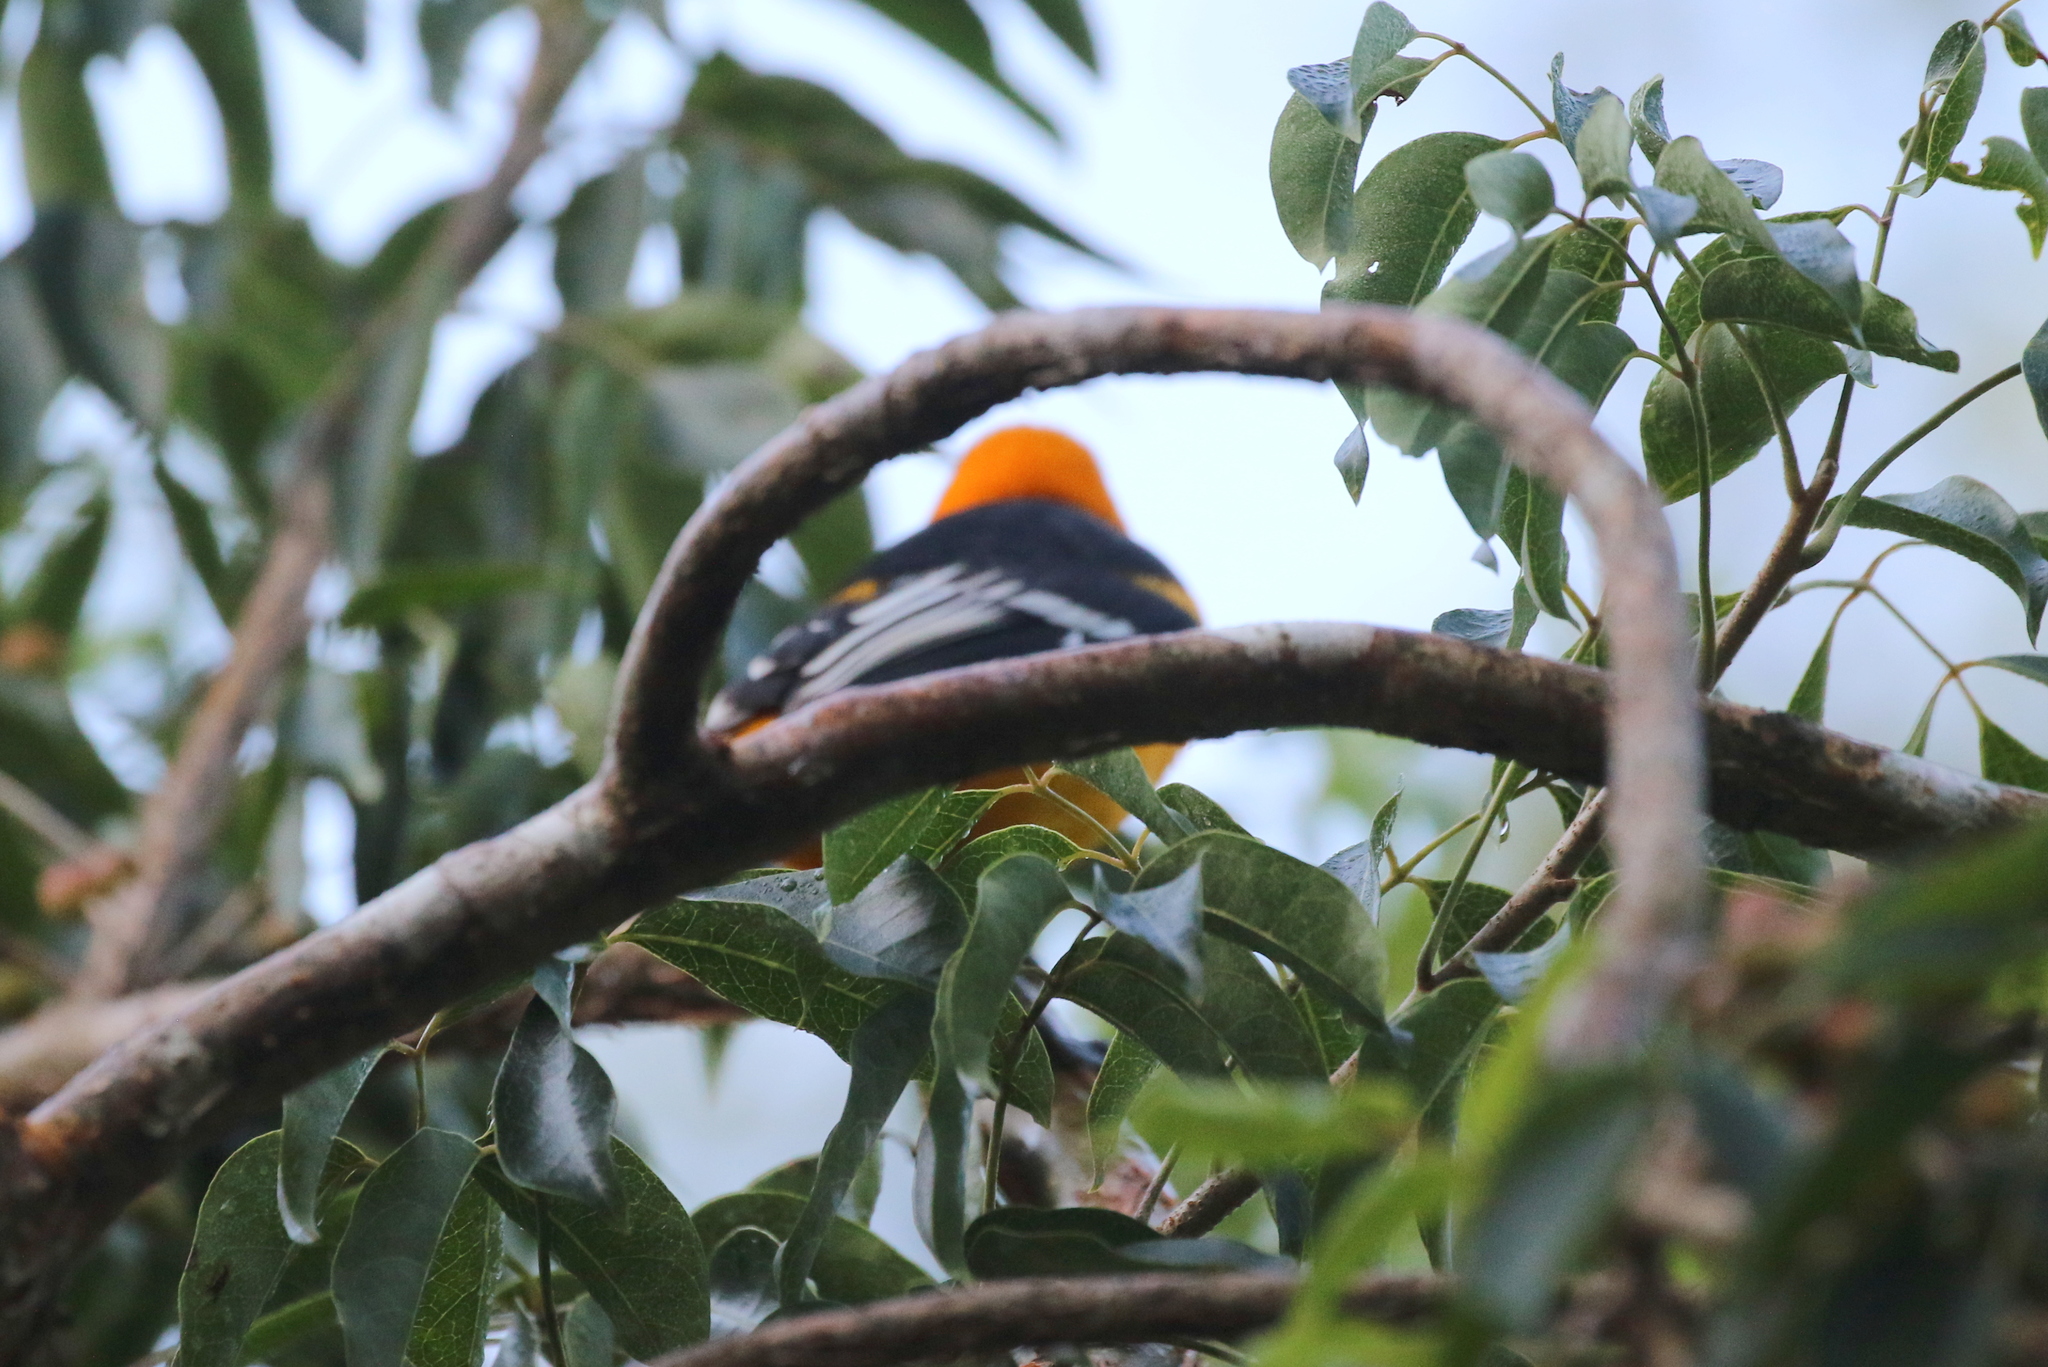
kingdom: Animalia
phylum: Chordata
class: Aves
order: Passeriformes
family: Icteridae
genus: Icterus
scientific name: Icterus gularis
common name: Altamira oriole
